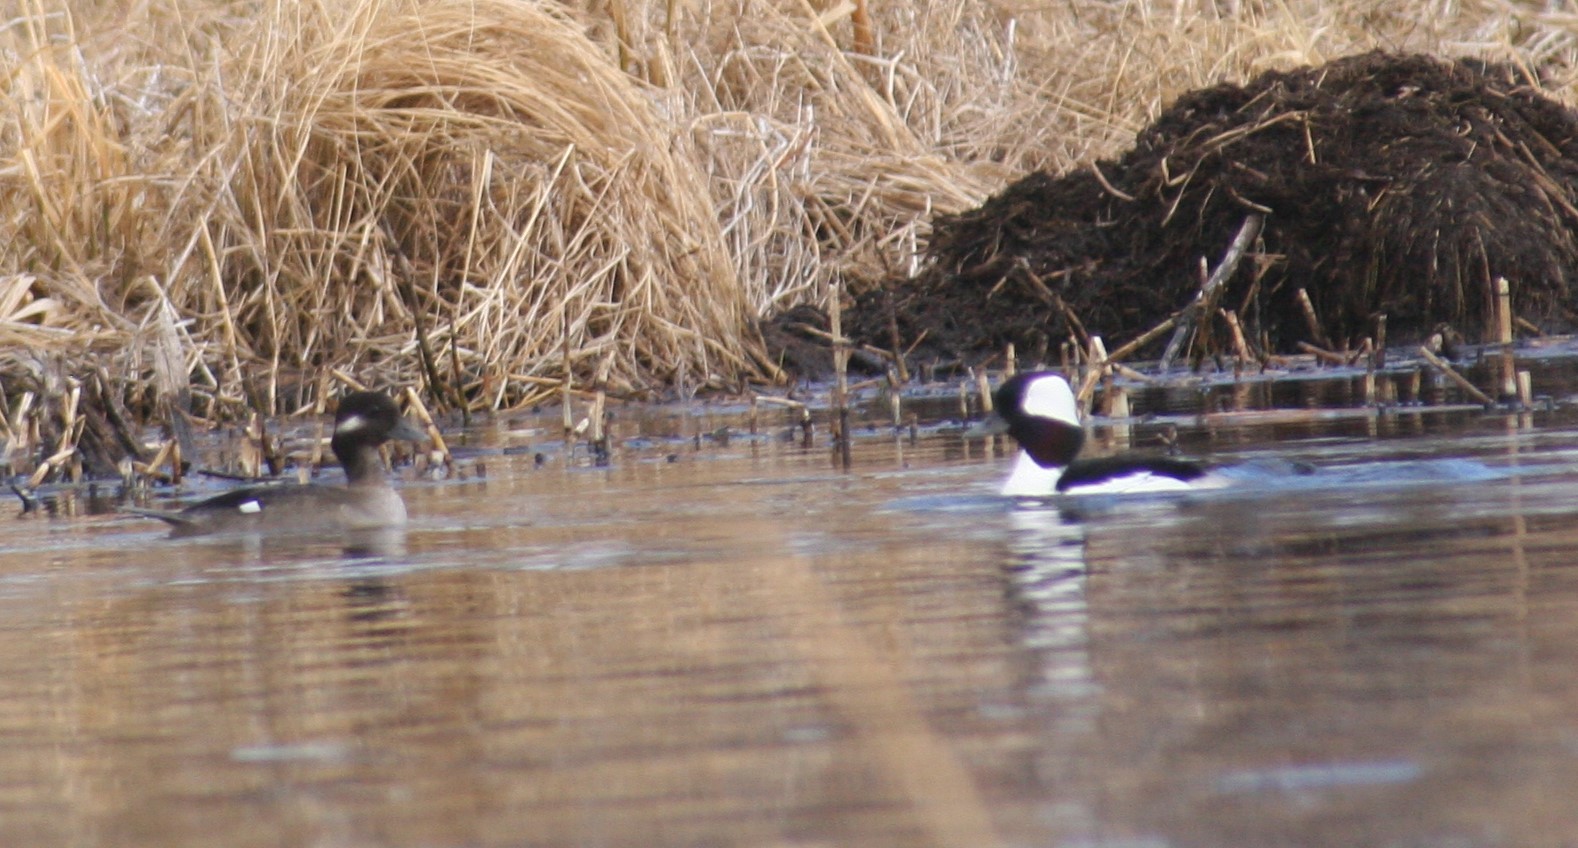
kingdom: Animalia
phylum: Chordata
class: Aves
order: Anseriformes
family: Anatidae
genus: Bucephala
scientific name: Bucephala albeola
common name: Bufflehead
